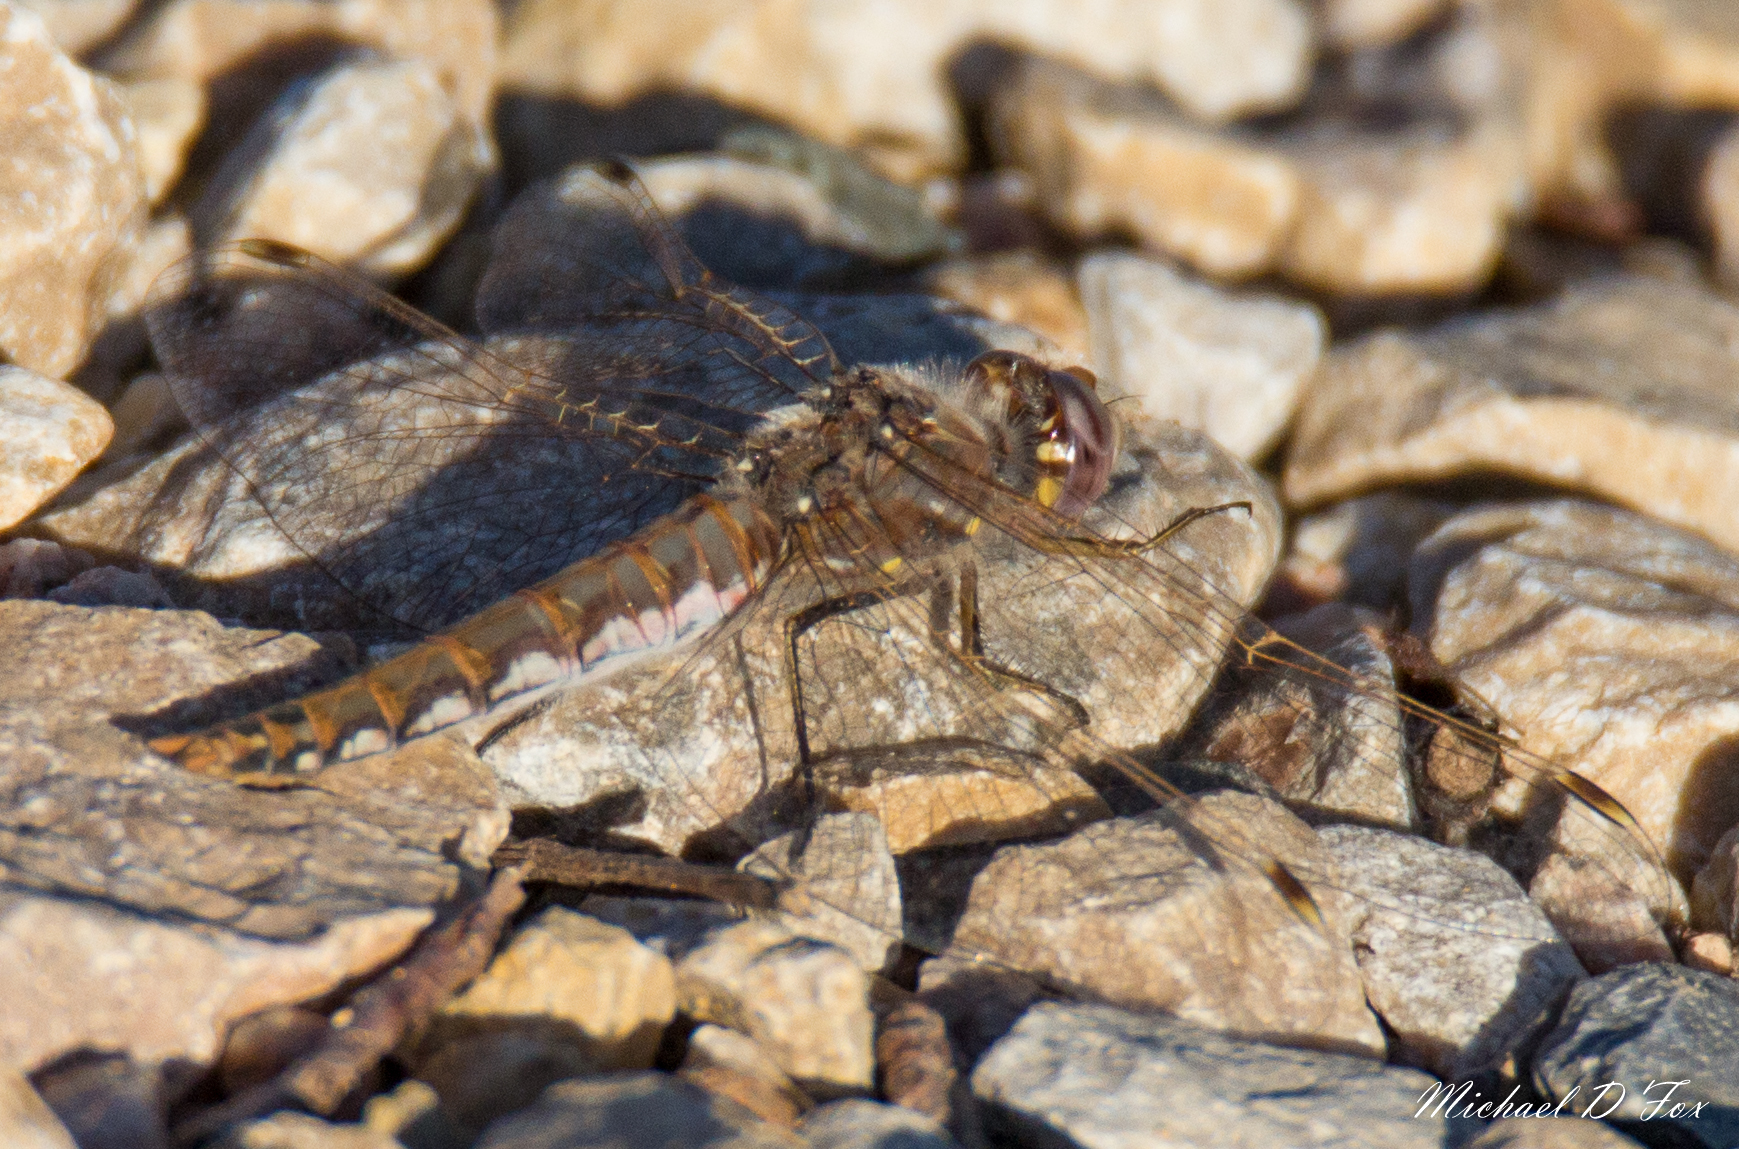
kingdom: Animalia
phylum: Arthropoda
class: Insecta
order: Odonata
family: Libellulidae
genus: Sympetrum
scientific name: Sympetrum corruptum
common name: Variegated meadowhawk
